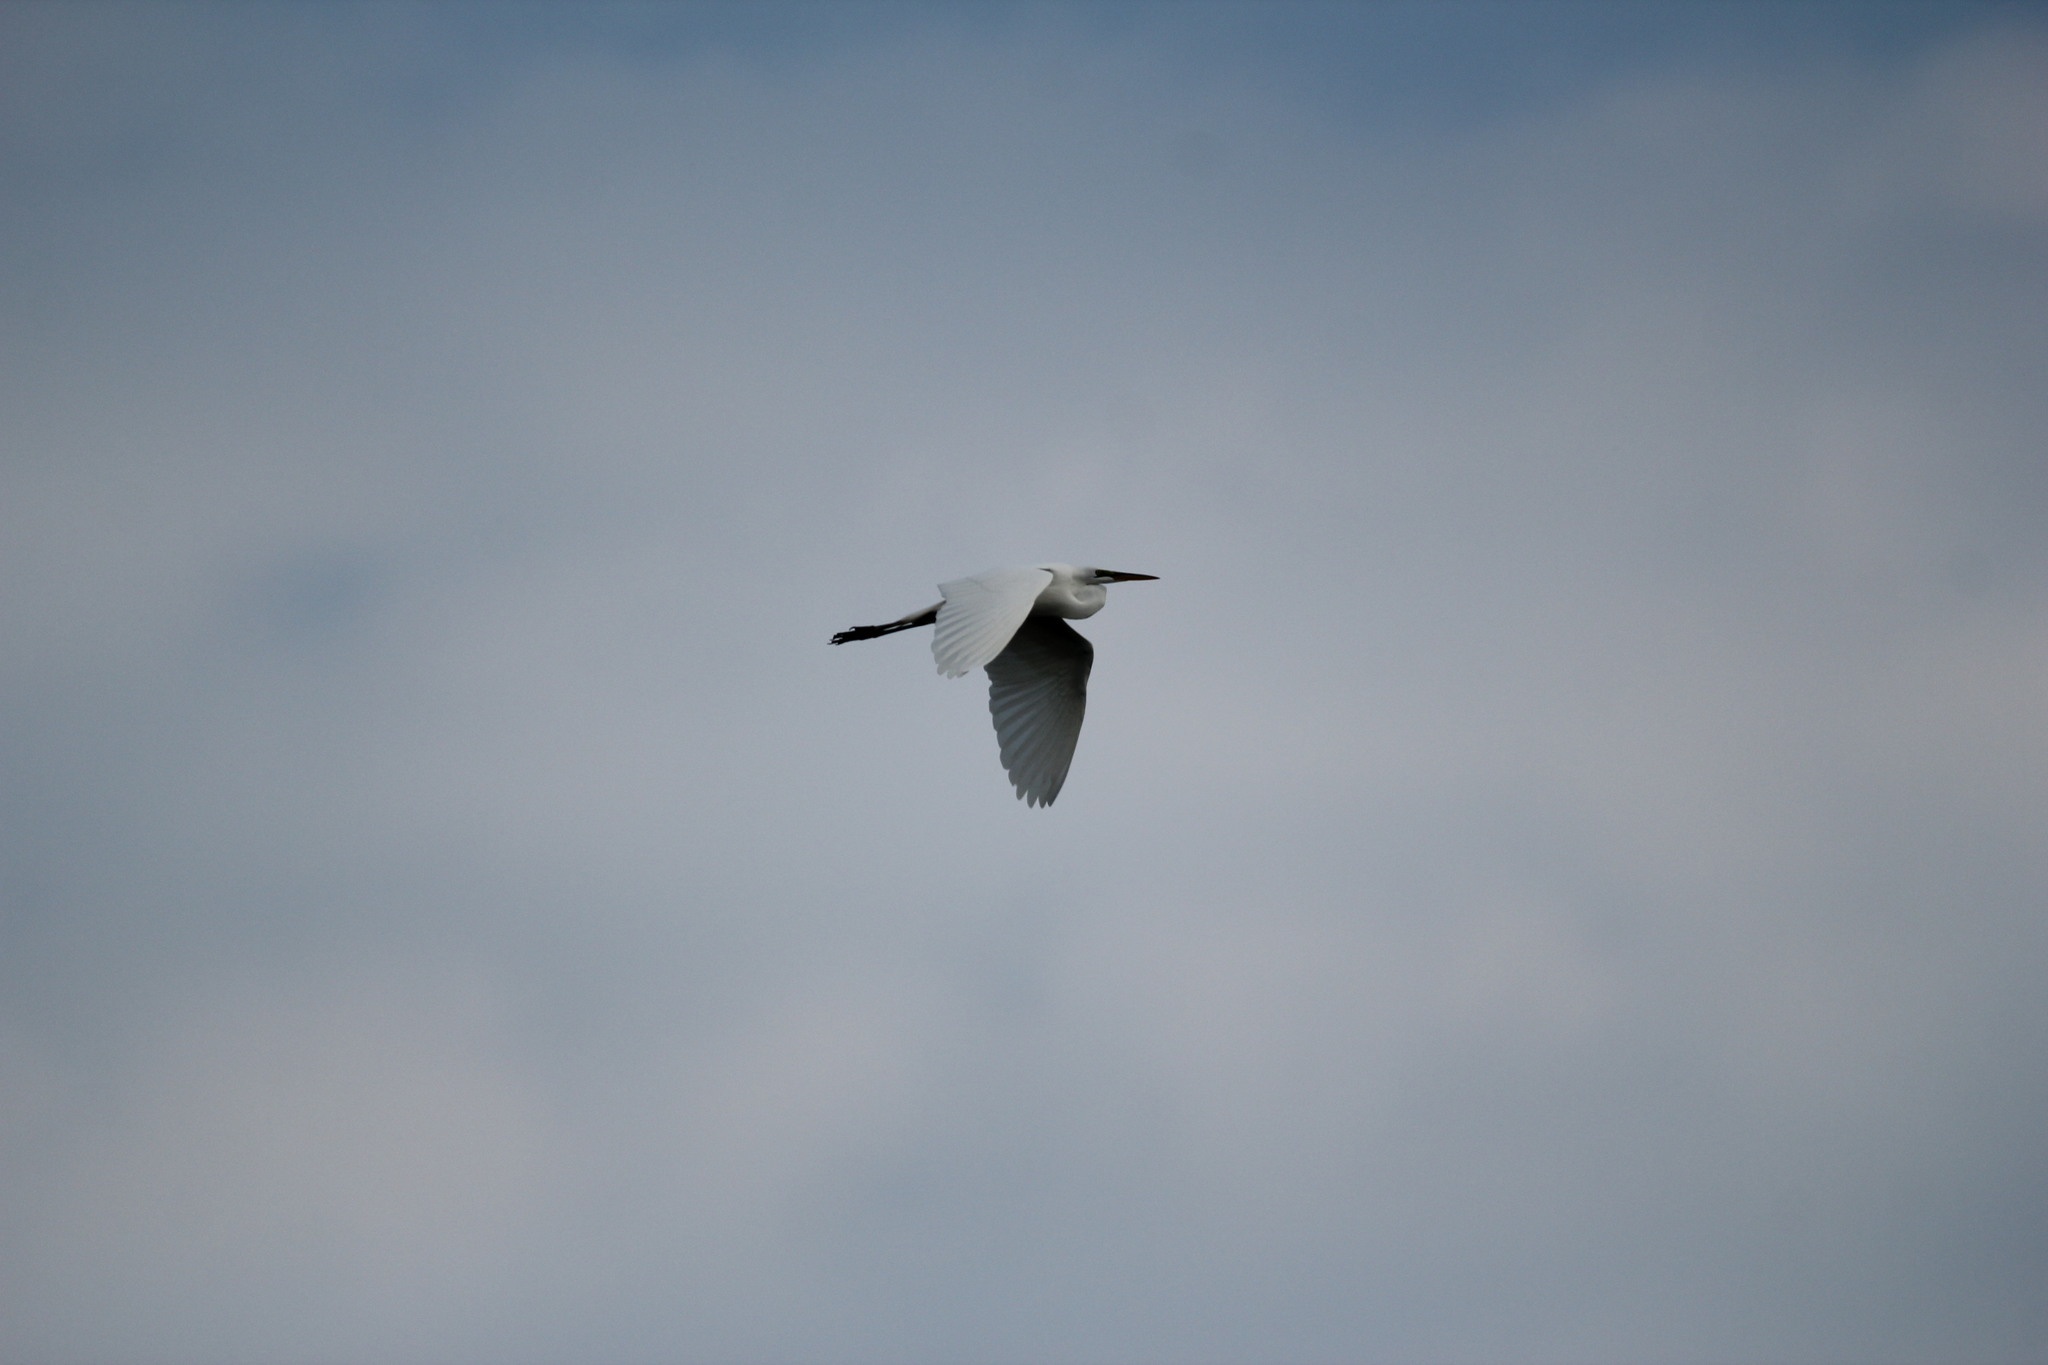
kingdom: Animalia
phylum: Chordata
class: Aves
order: Pelecaniformes
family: Ardeidae
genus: Ardea
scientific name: Ardea alba
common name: Great egret
